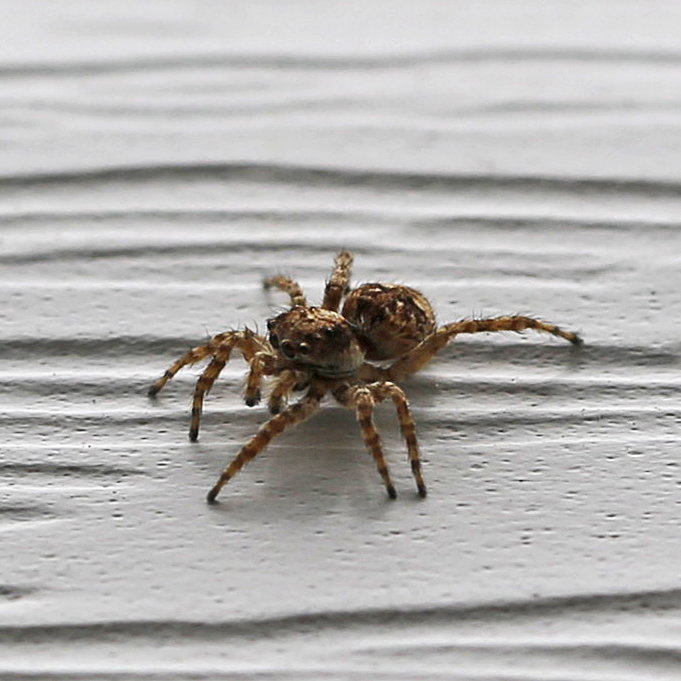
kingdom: Animalia
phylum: Arthropoda
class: Arachnida
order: Araneae
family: Salticidae
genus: Attulus
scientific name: Attulus fasciger
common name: Asiatic wall jumping spider
